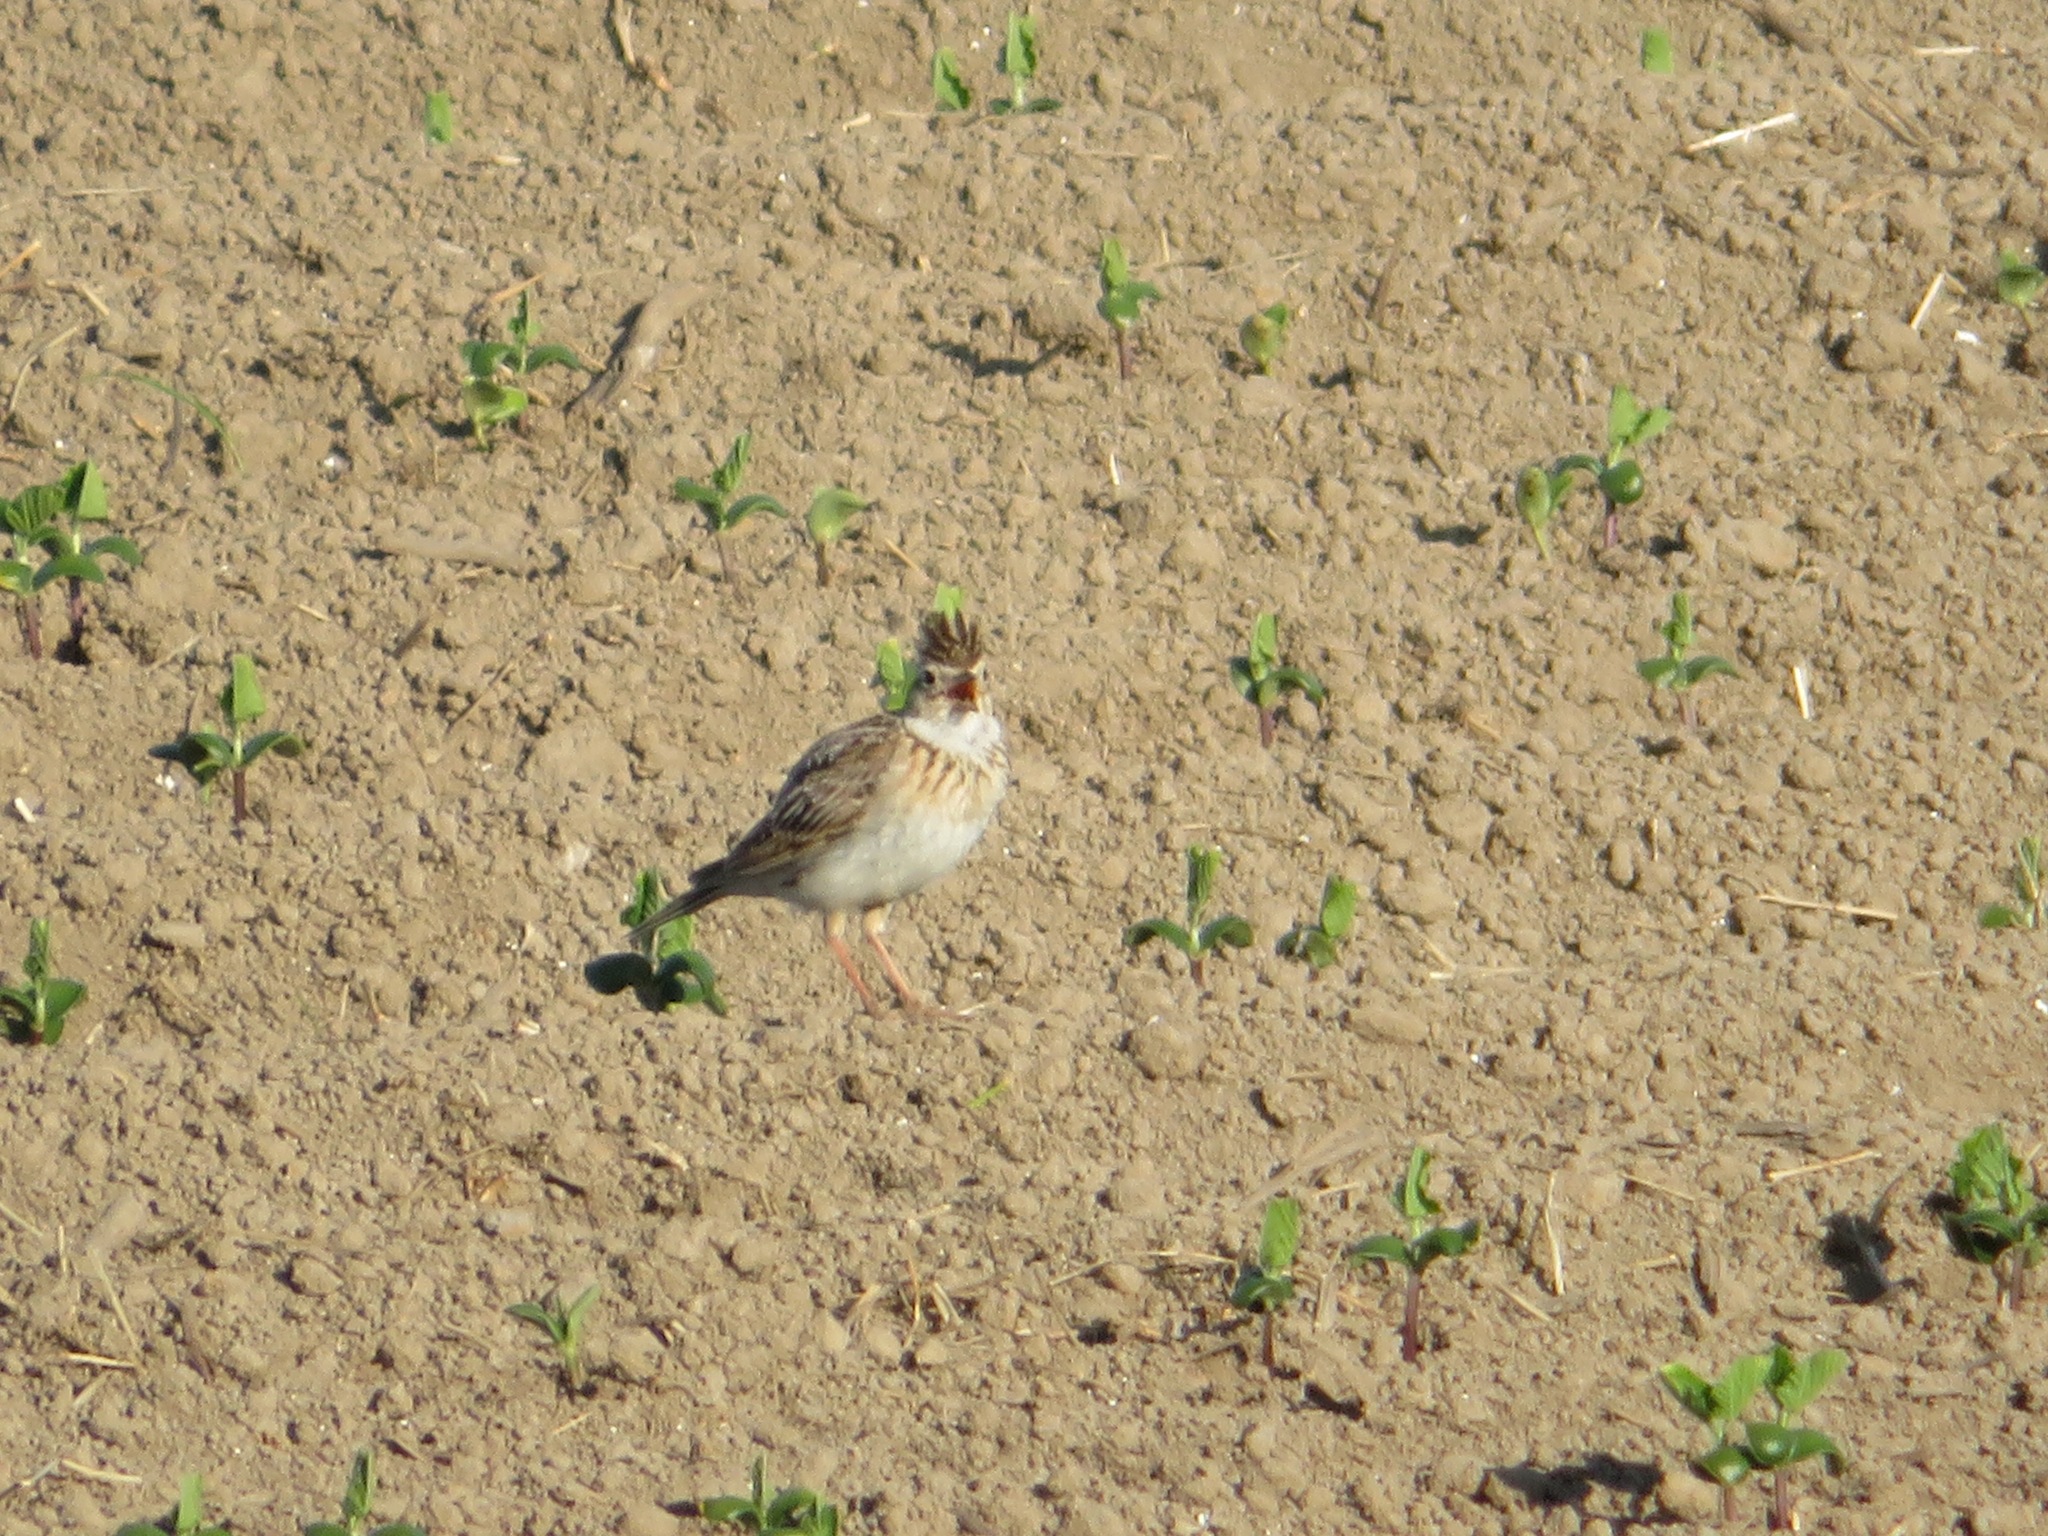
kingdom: Animalia
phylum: Chordata
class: Aves
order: Passeriformes
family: Alaudidae
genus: Alauda
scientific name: Alauda arvensis
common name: Eurasian skylark
